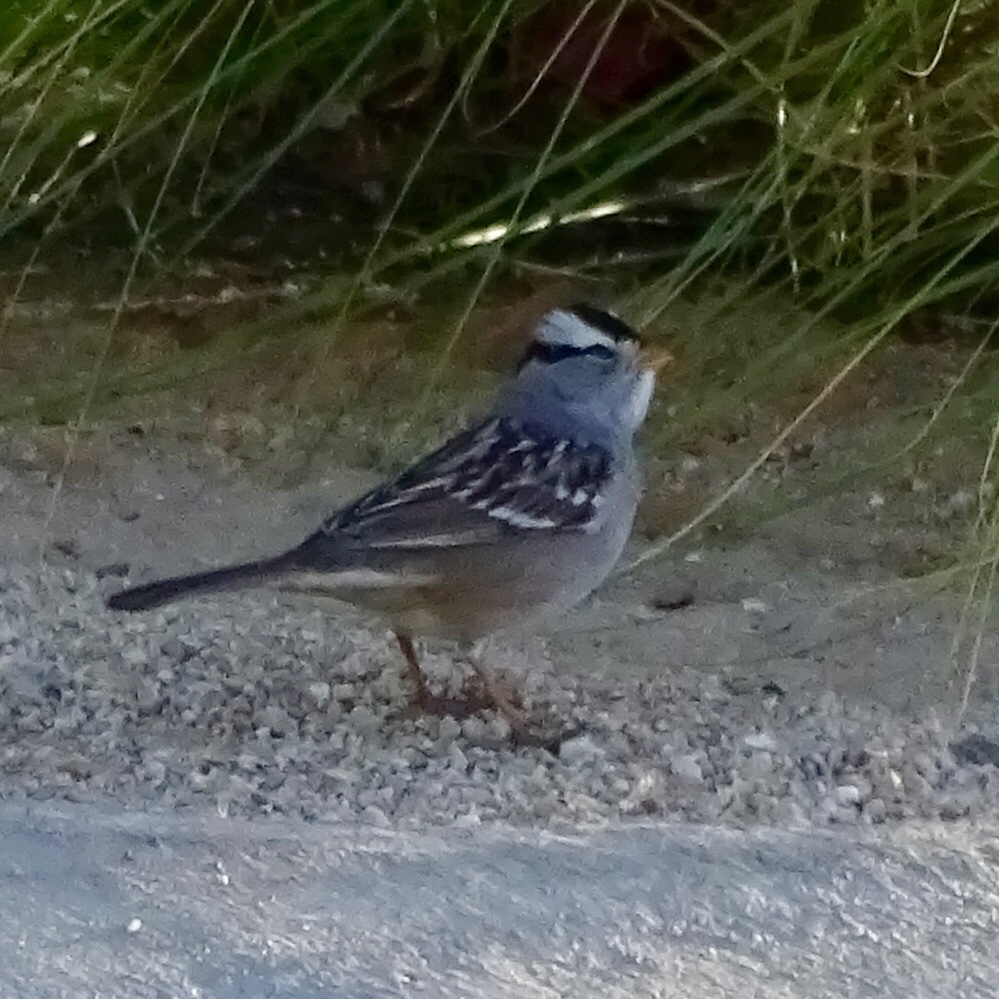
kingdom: Animalia
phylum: Chordata
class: Aves
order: Passeriformes
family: Passerellidae
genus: Zonotrichia
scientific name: Zonotrichia leucophrys
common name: White-crowned sparrow
